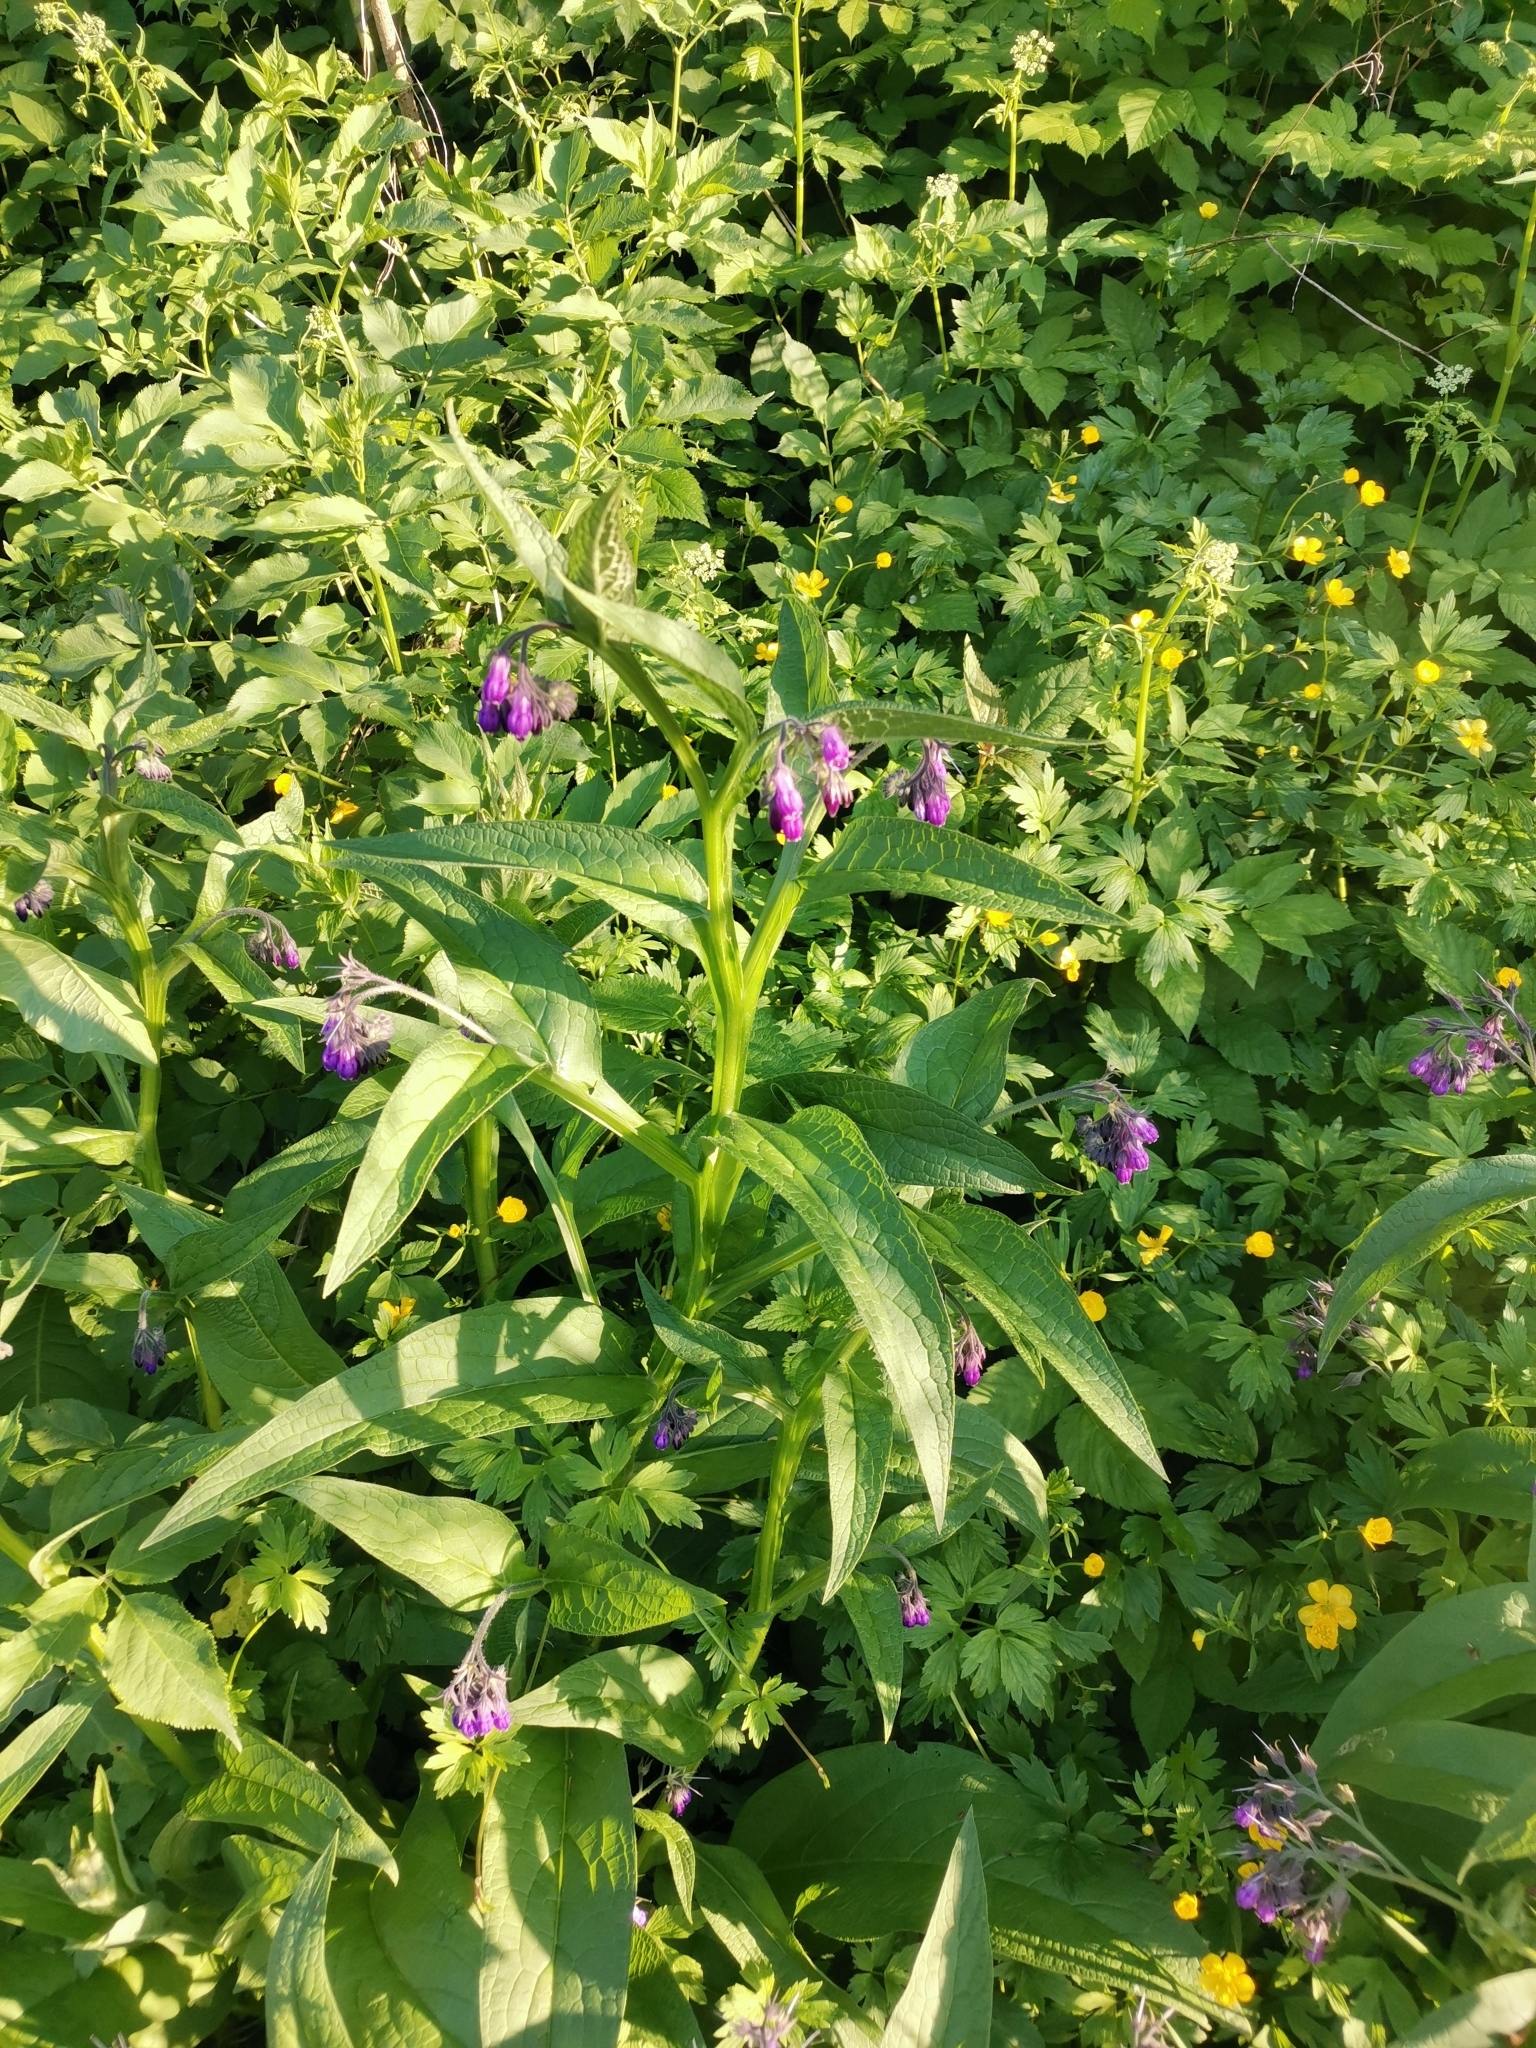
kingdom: Plantae
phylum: Tracheophyta
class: Magnoliopsida
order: Boraginales
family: Boraginaceae
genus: Symphytum
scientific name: Symphytum officinale
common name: Common comfrey
